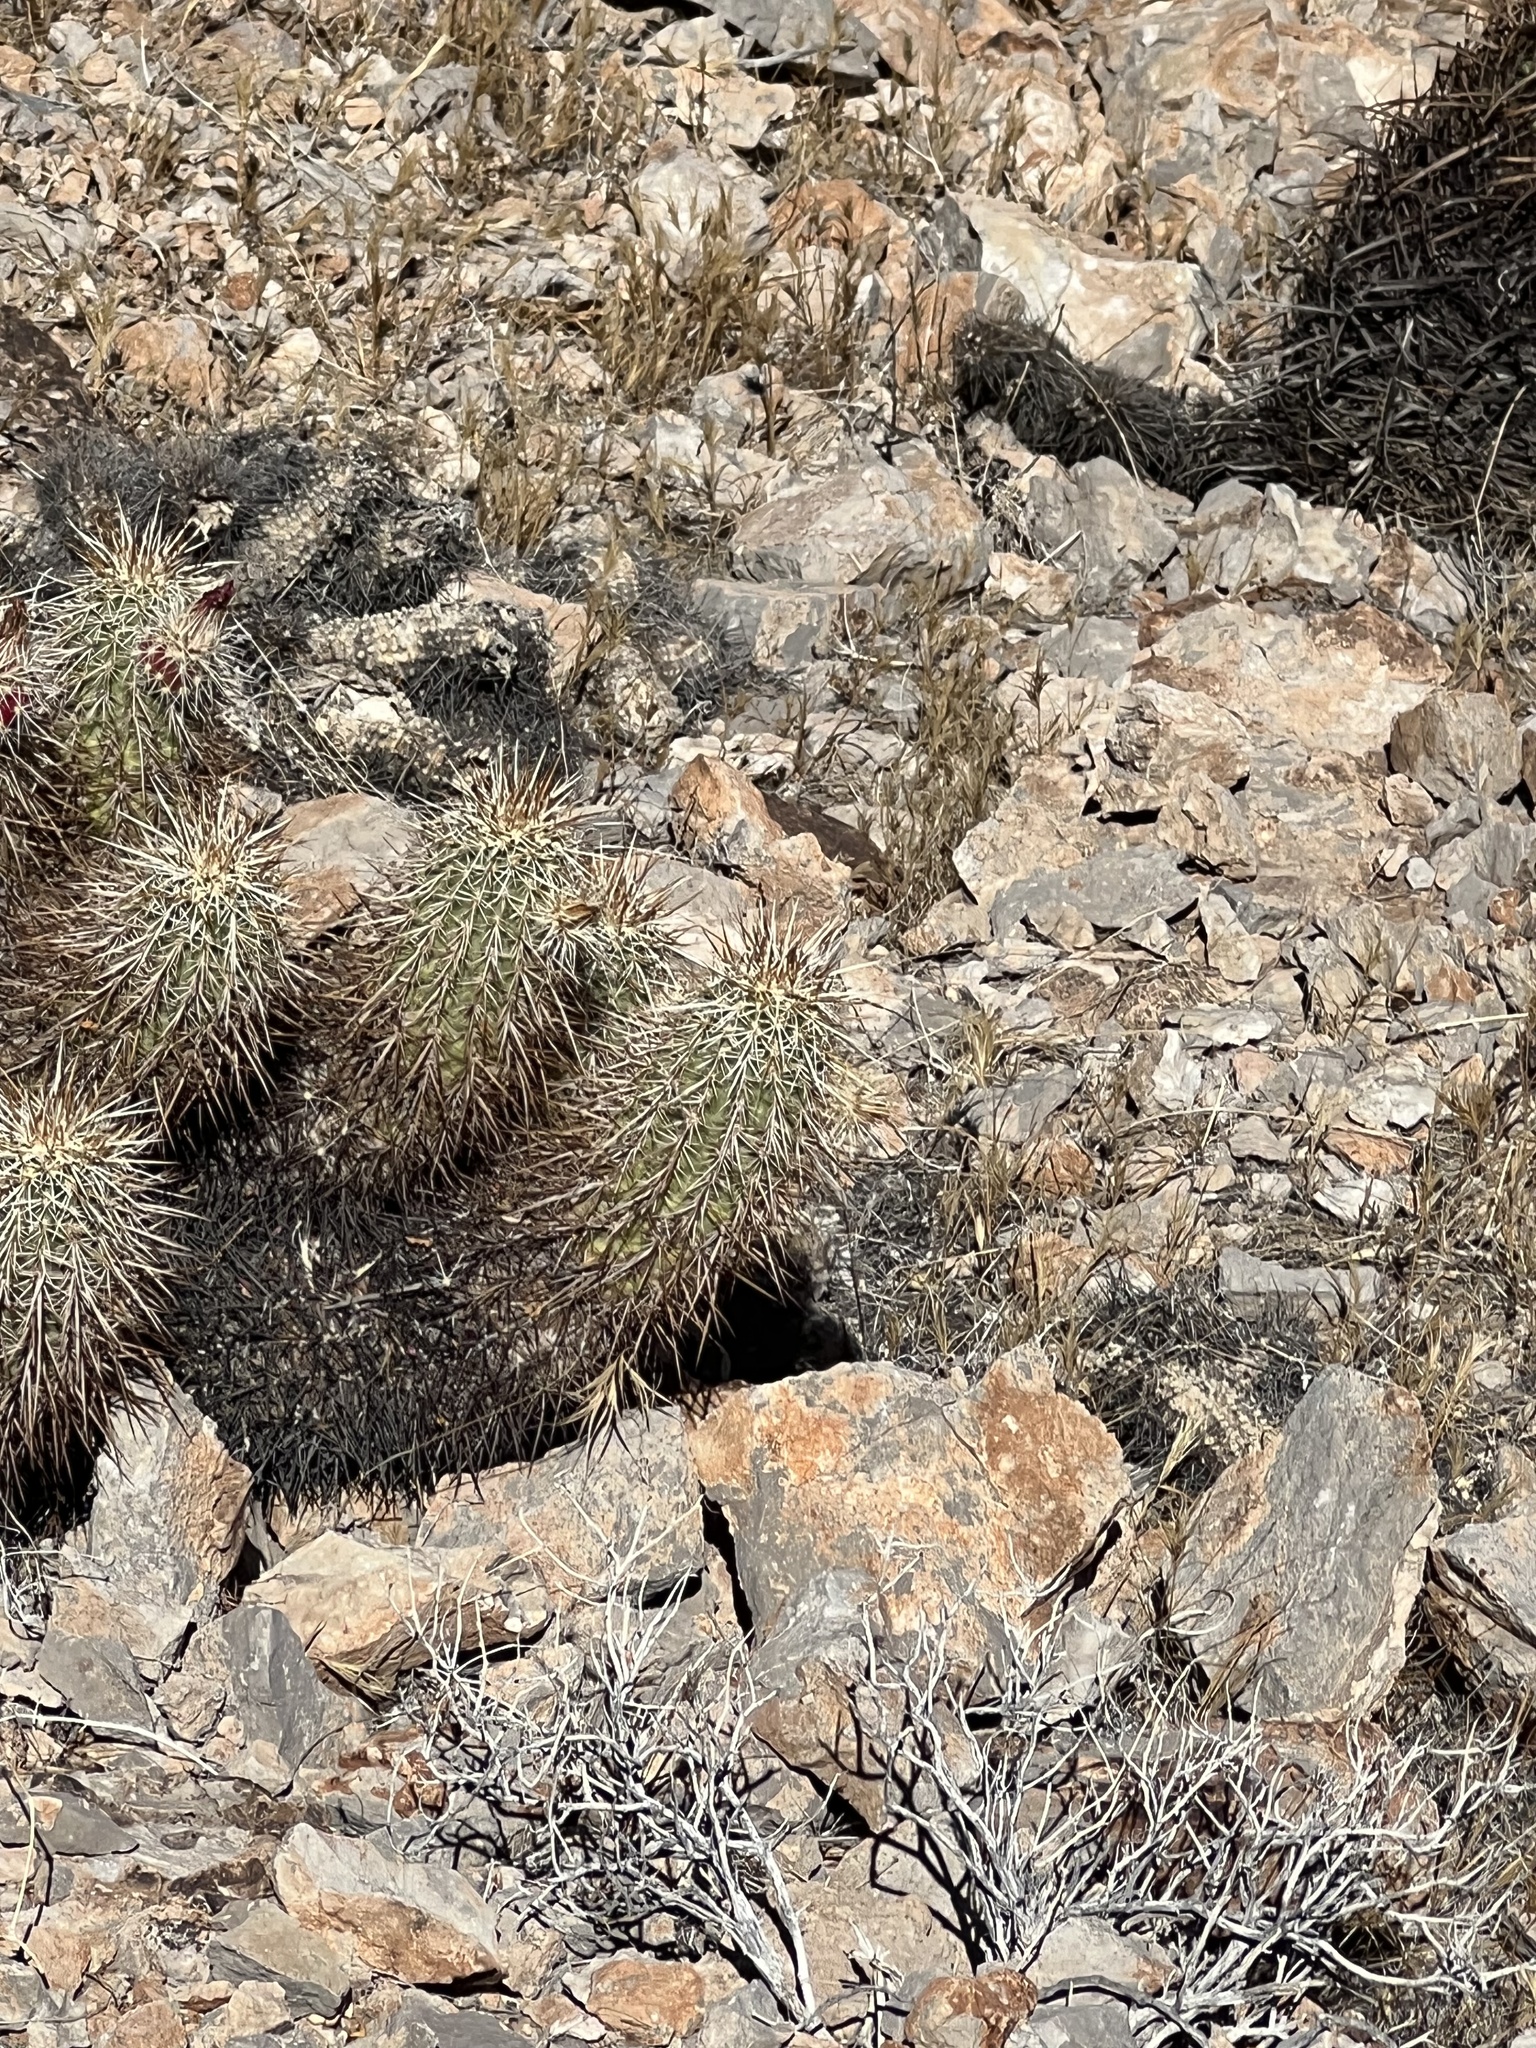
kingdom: Plantae
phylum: Tracheophyta
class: Magnoliopsida
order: Caryophyllales
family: Cactaceae
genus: Echinocereus
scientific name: Echinocereus engelmannii
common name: Engelmann's hedgehog cactus
